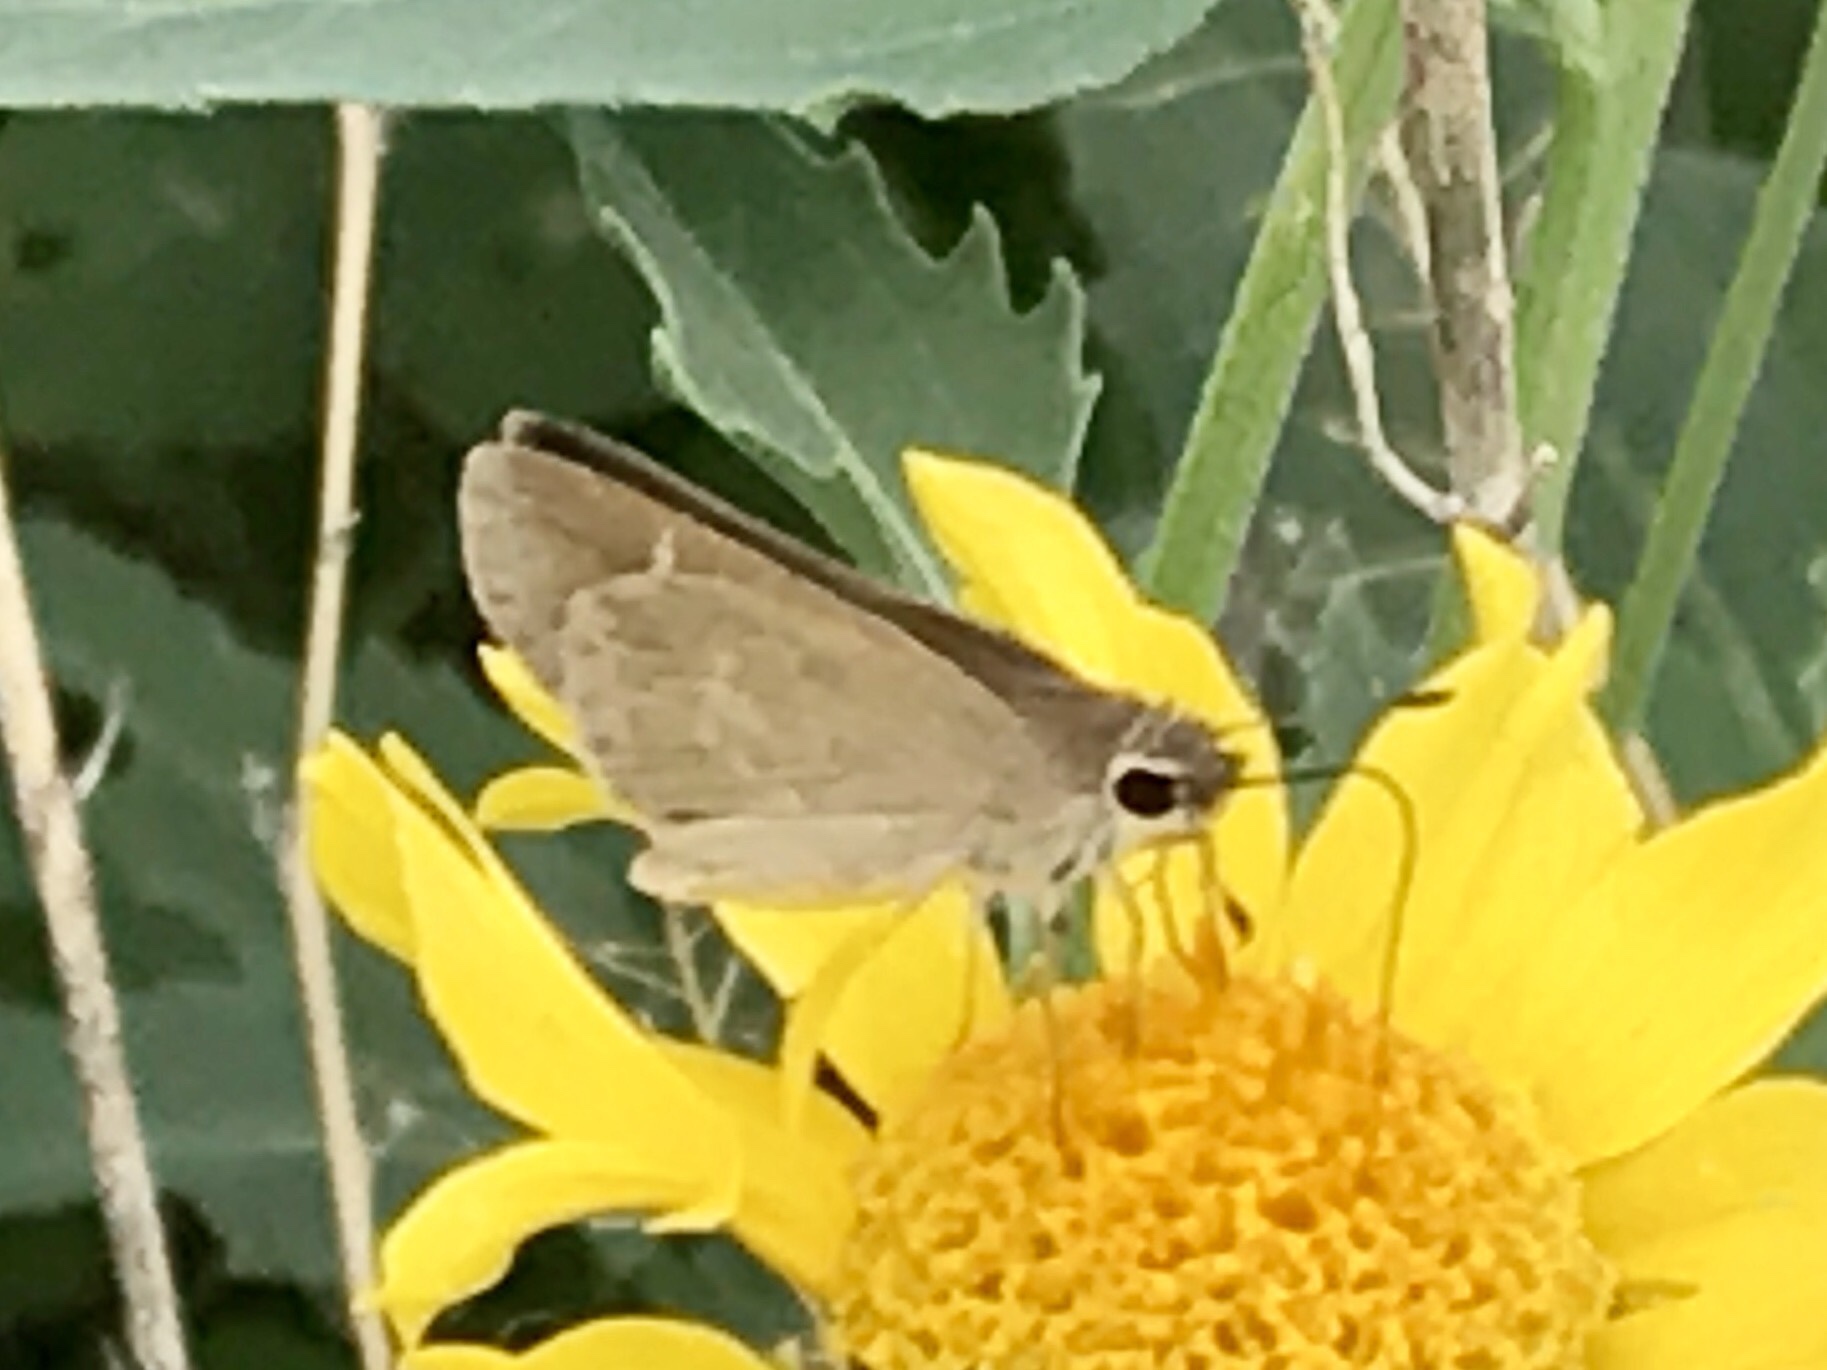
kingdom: Animalia
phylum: Arthropoda
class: Insecta
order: Lepidoptera
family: Hesperiidae
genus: Lerodea
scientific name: Lerodea eufala
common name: Eufala skipper
